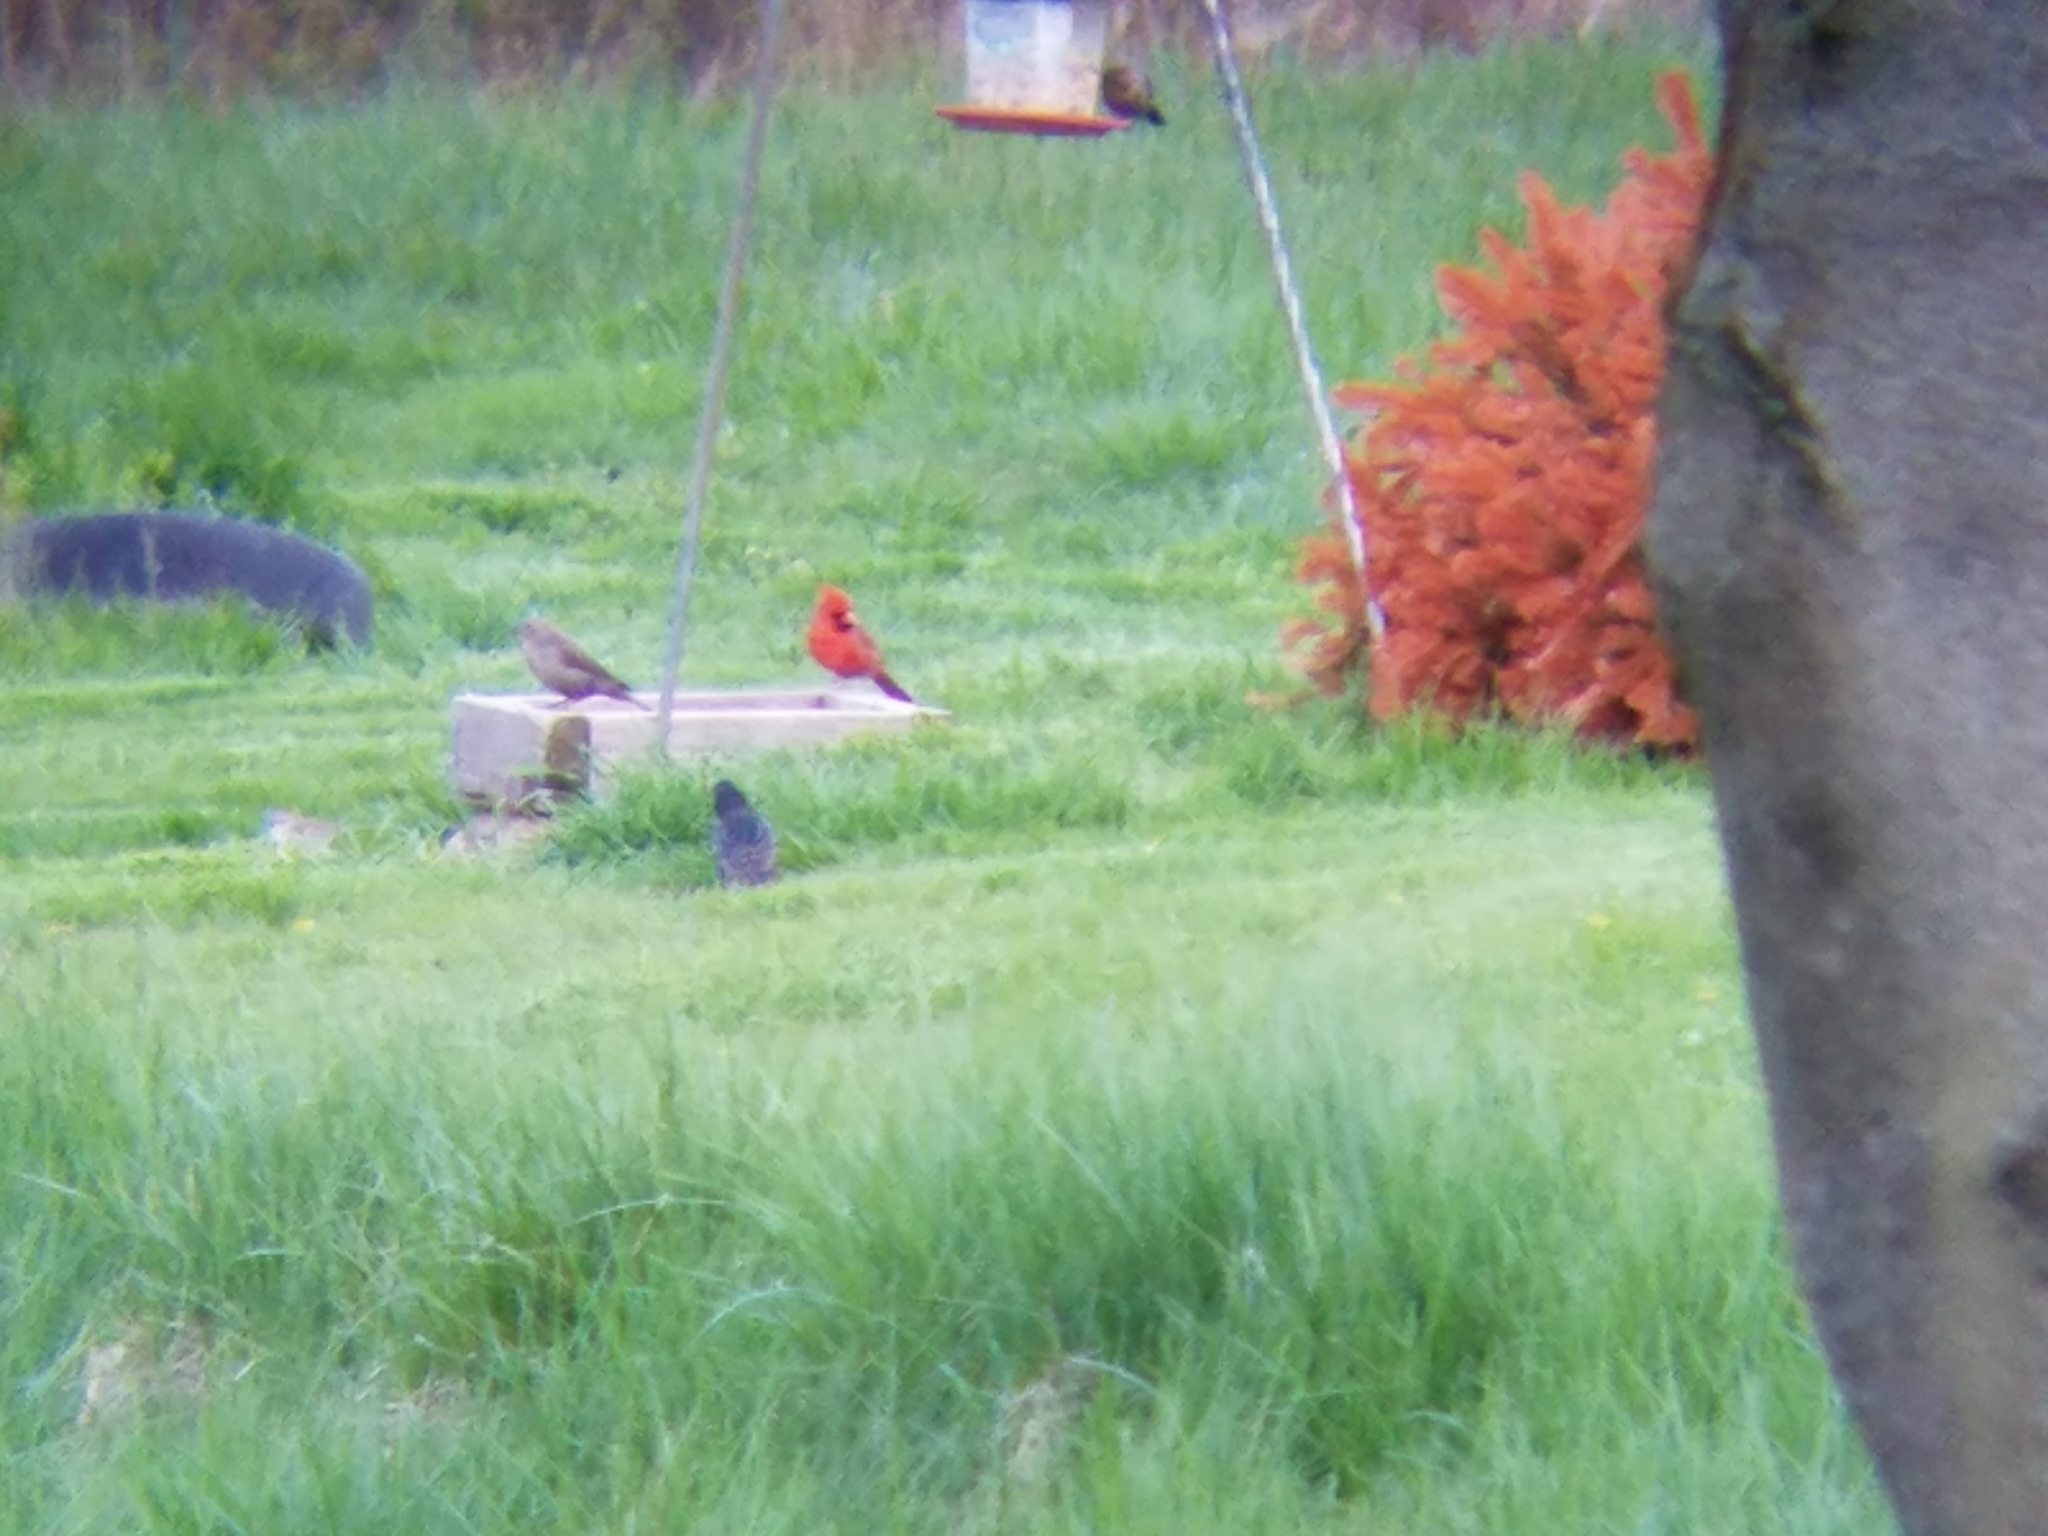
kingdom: Animalia
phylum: Chordata
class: Aves
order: Passeriformes
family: Cardinalidae
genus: Cardinalis
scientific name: Cardinalis cardinalis
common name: Northern cardinal
